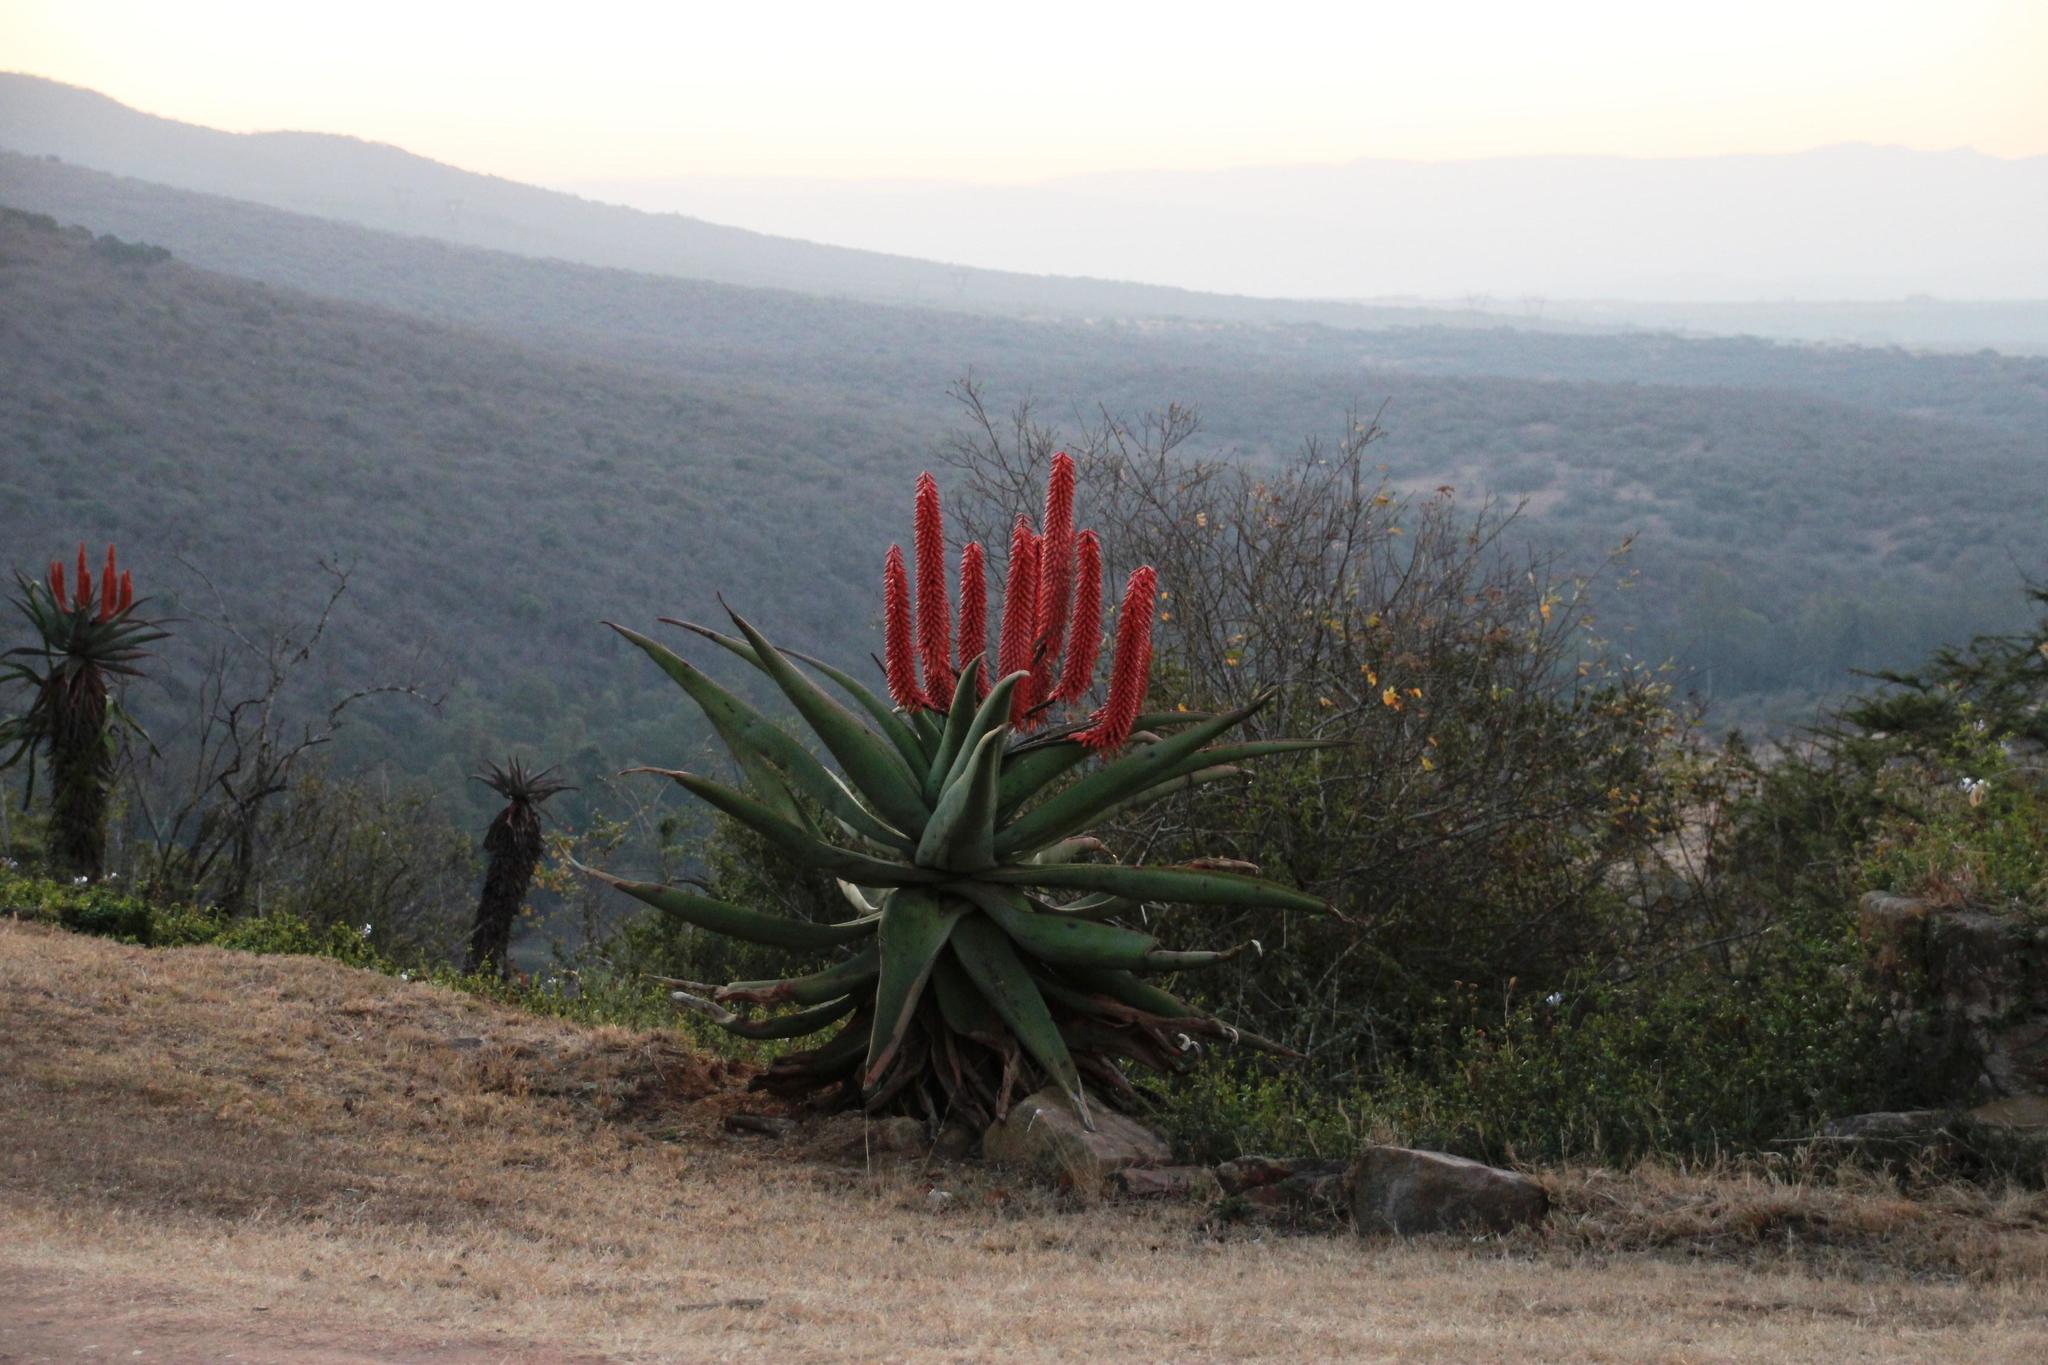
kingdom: Plantae
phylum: Tracheophyta
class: Liliopsida
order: Asparagales
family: Asphodelaceae
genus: Aloe
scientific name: Aloe ferox
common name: Bitter aloe
